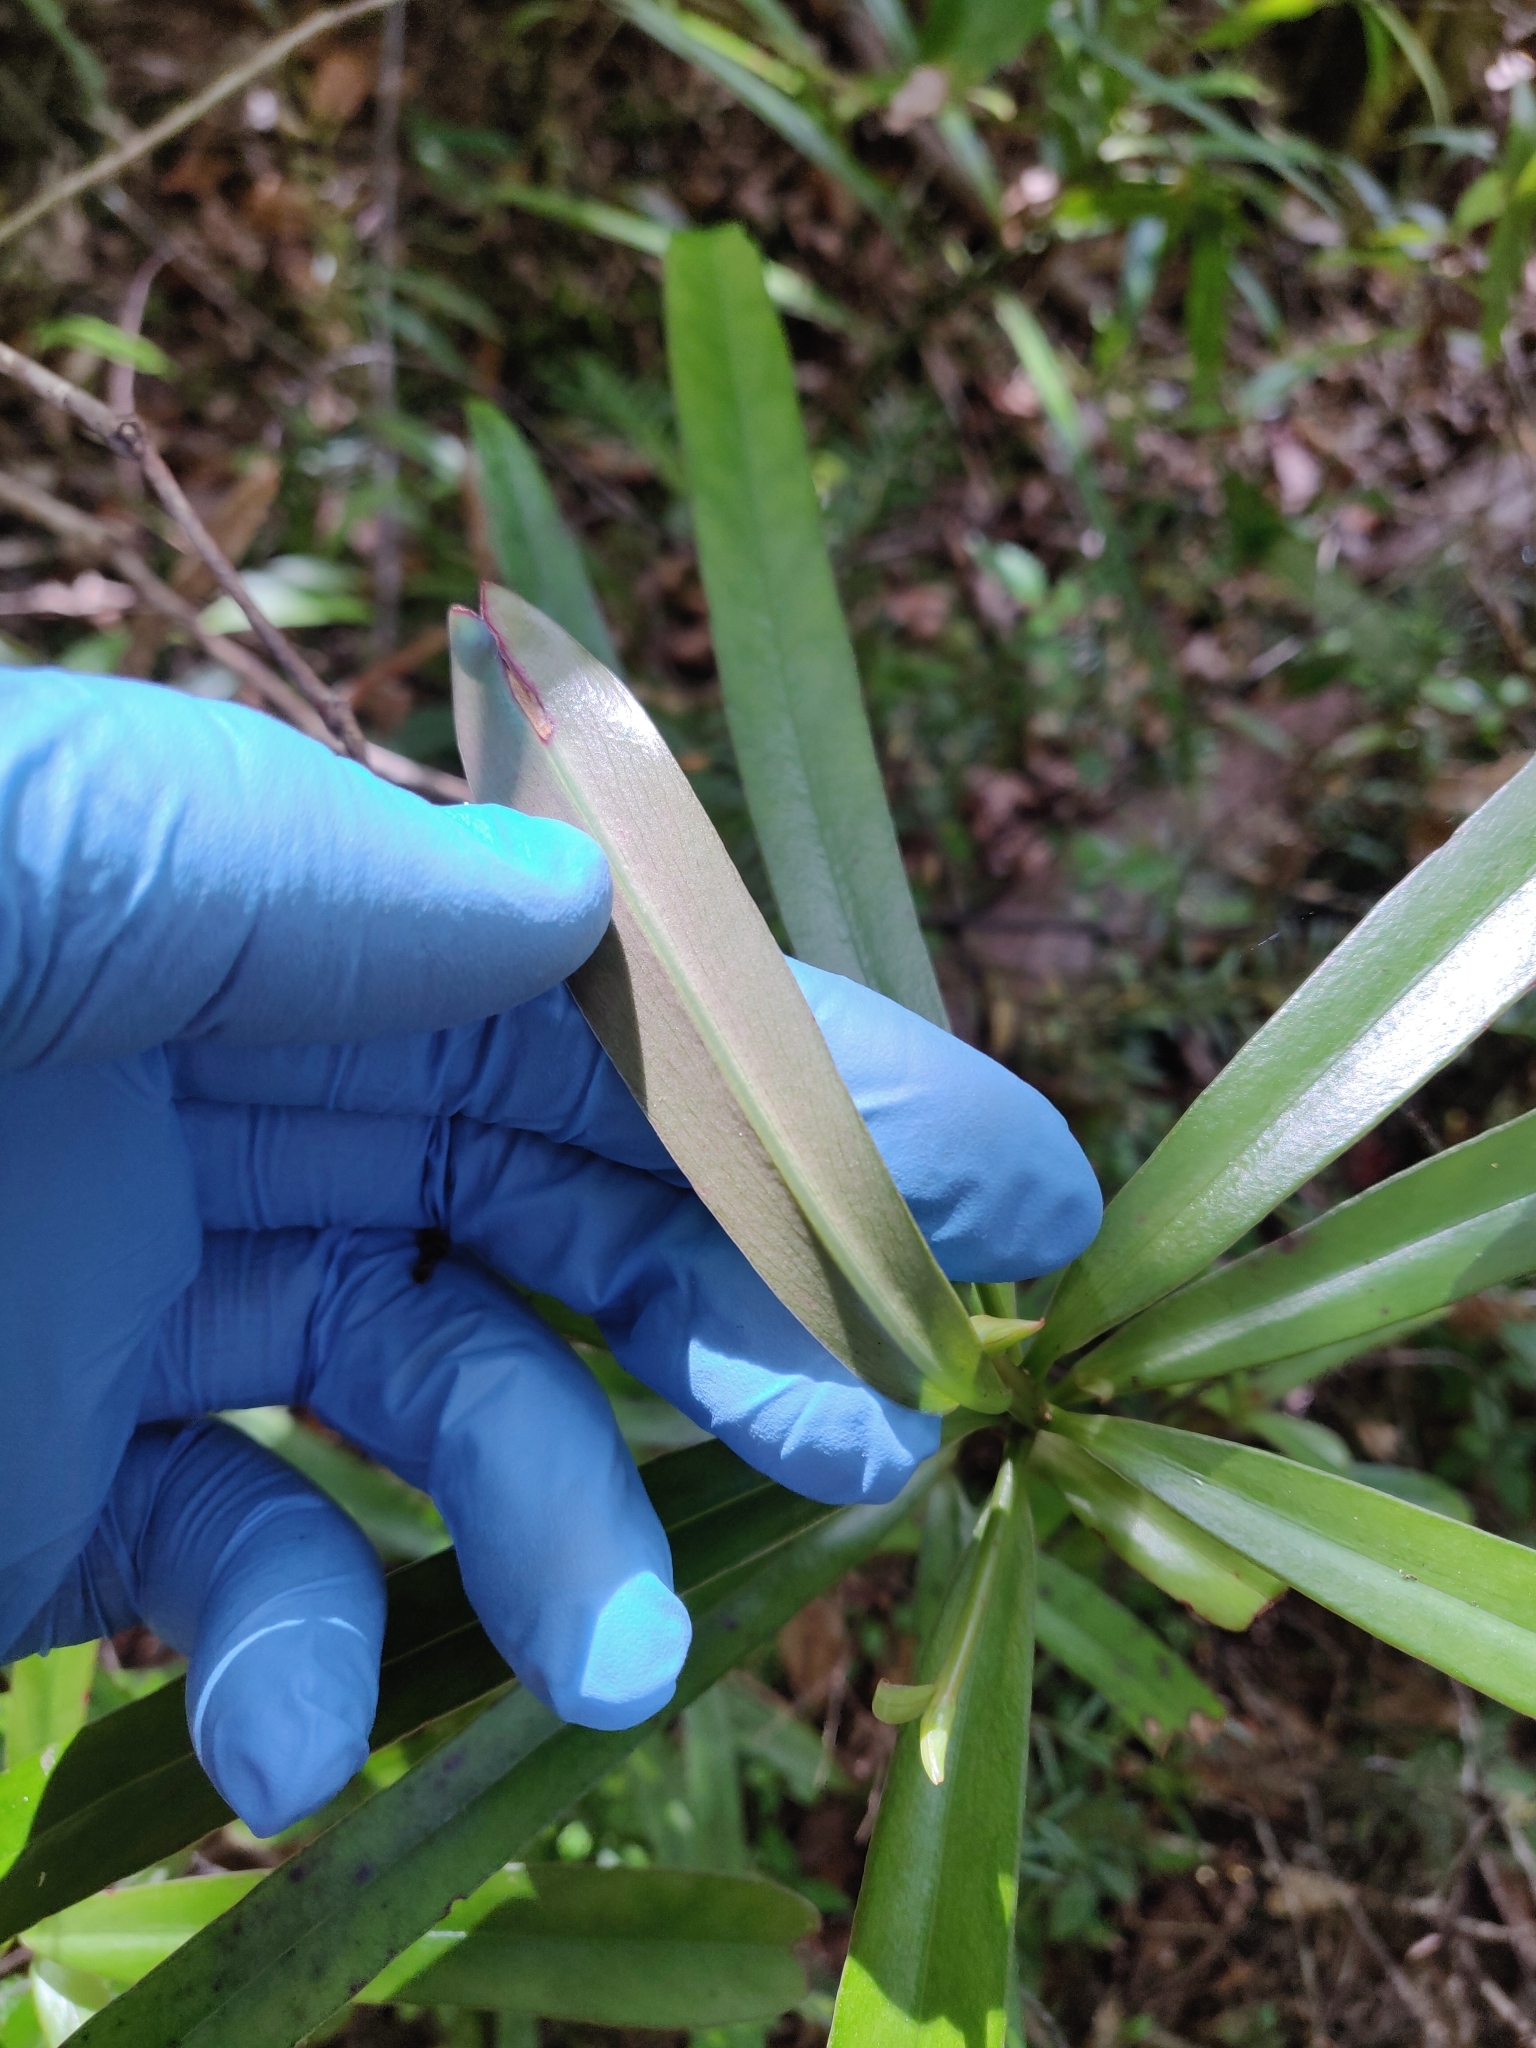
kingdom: Plantae
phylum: Tracheophyta
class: Magnoliopsida
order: Ericales
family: Primulaceae
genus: Myrsine
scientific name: Myrsine salicina
